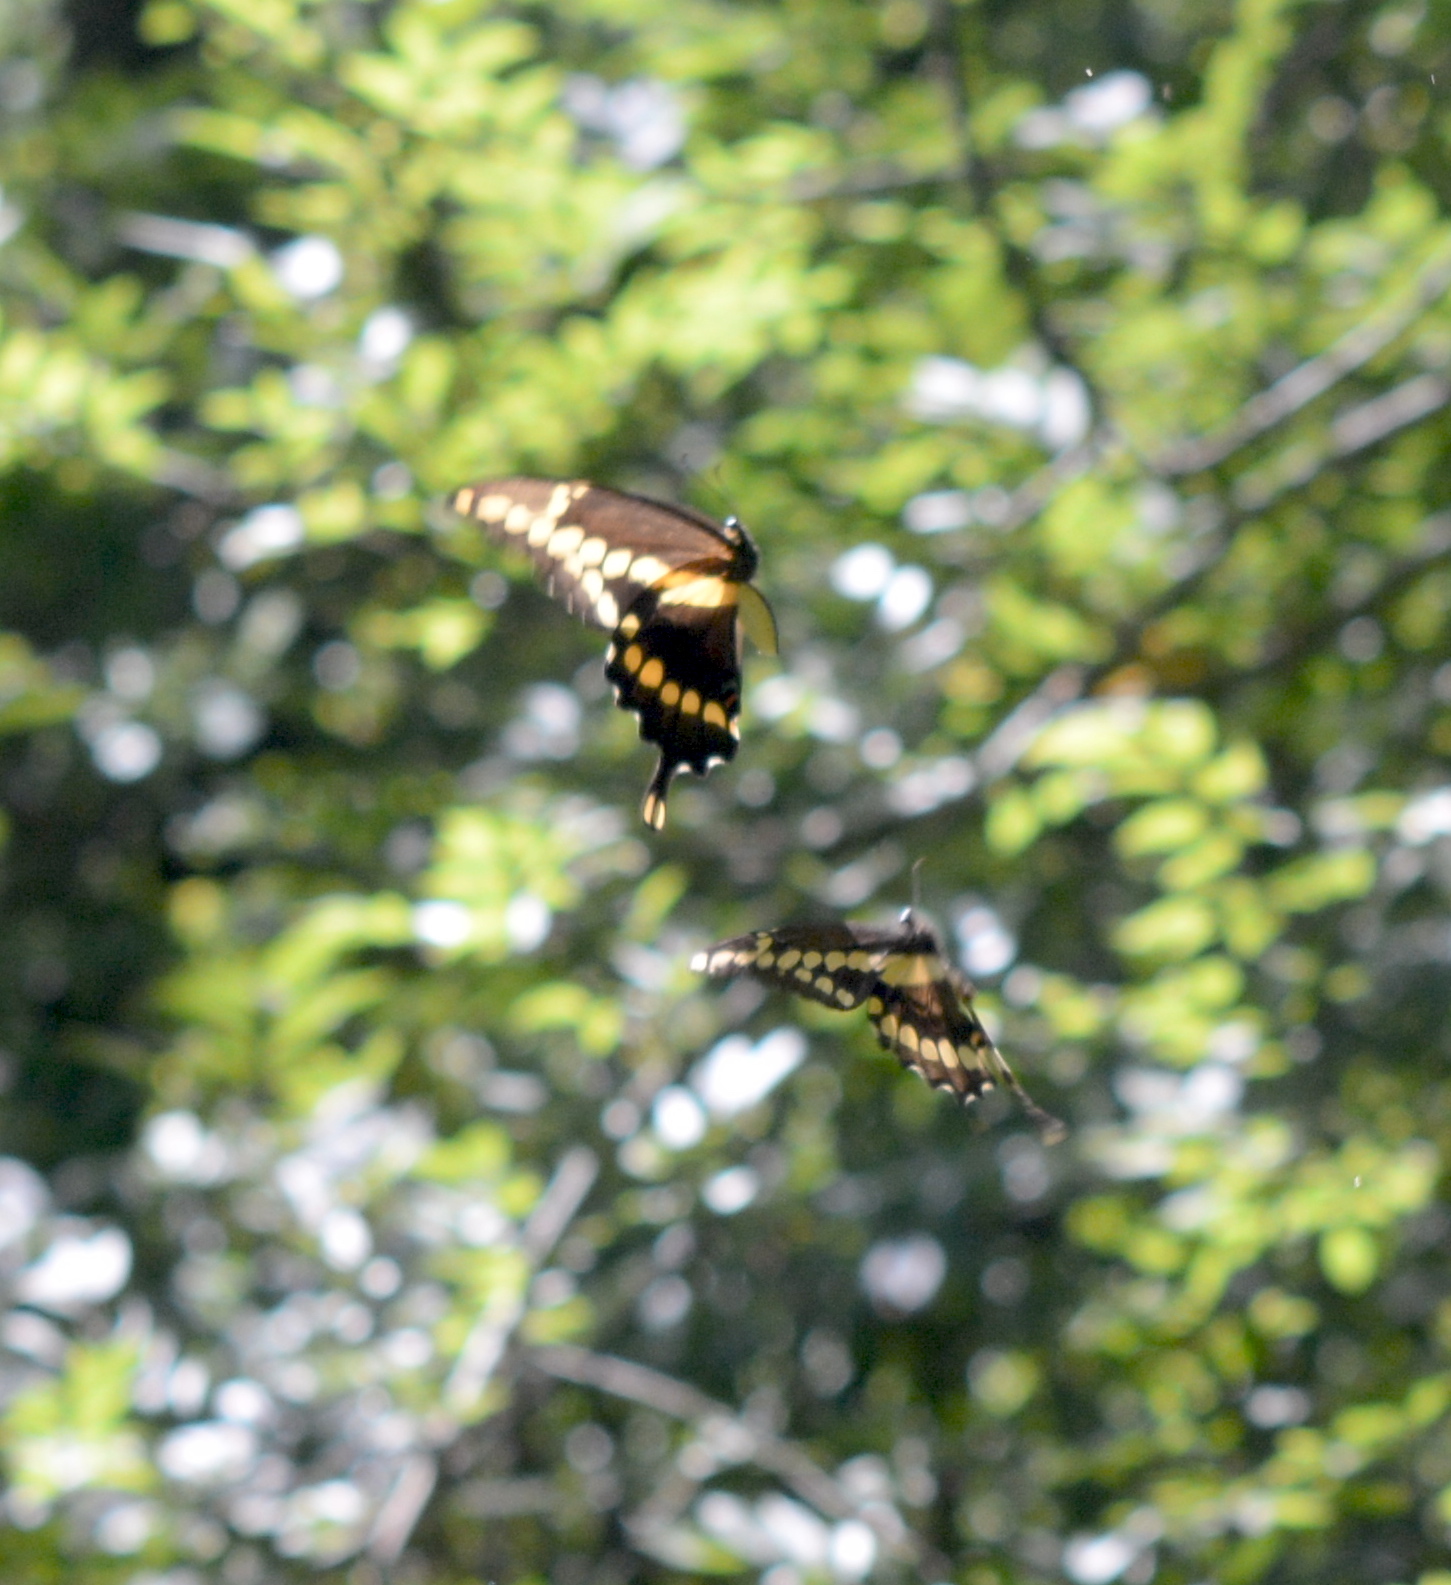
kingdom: Animalia
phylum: Arthropoda
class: Insecta
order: Lepidoptera
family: Papilionidae
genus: Papilio
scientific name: Papilio cresphontes
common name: Giant swallowtail
